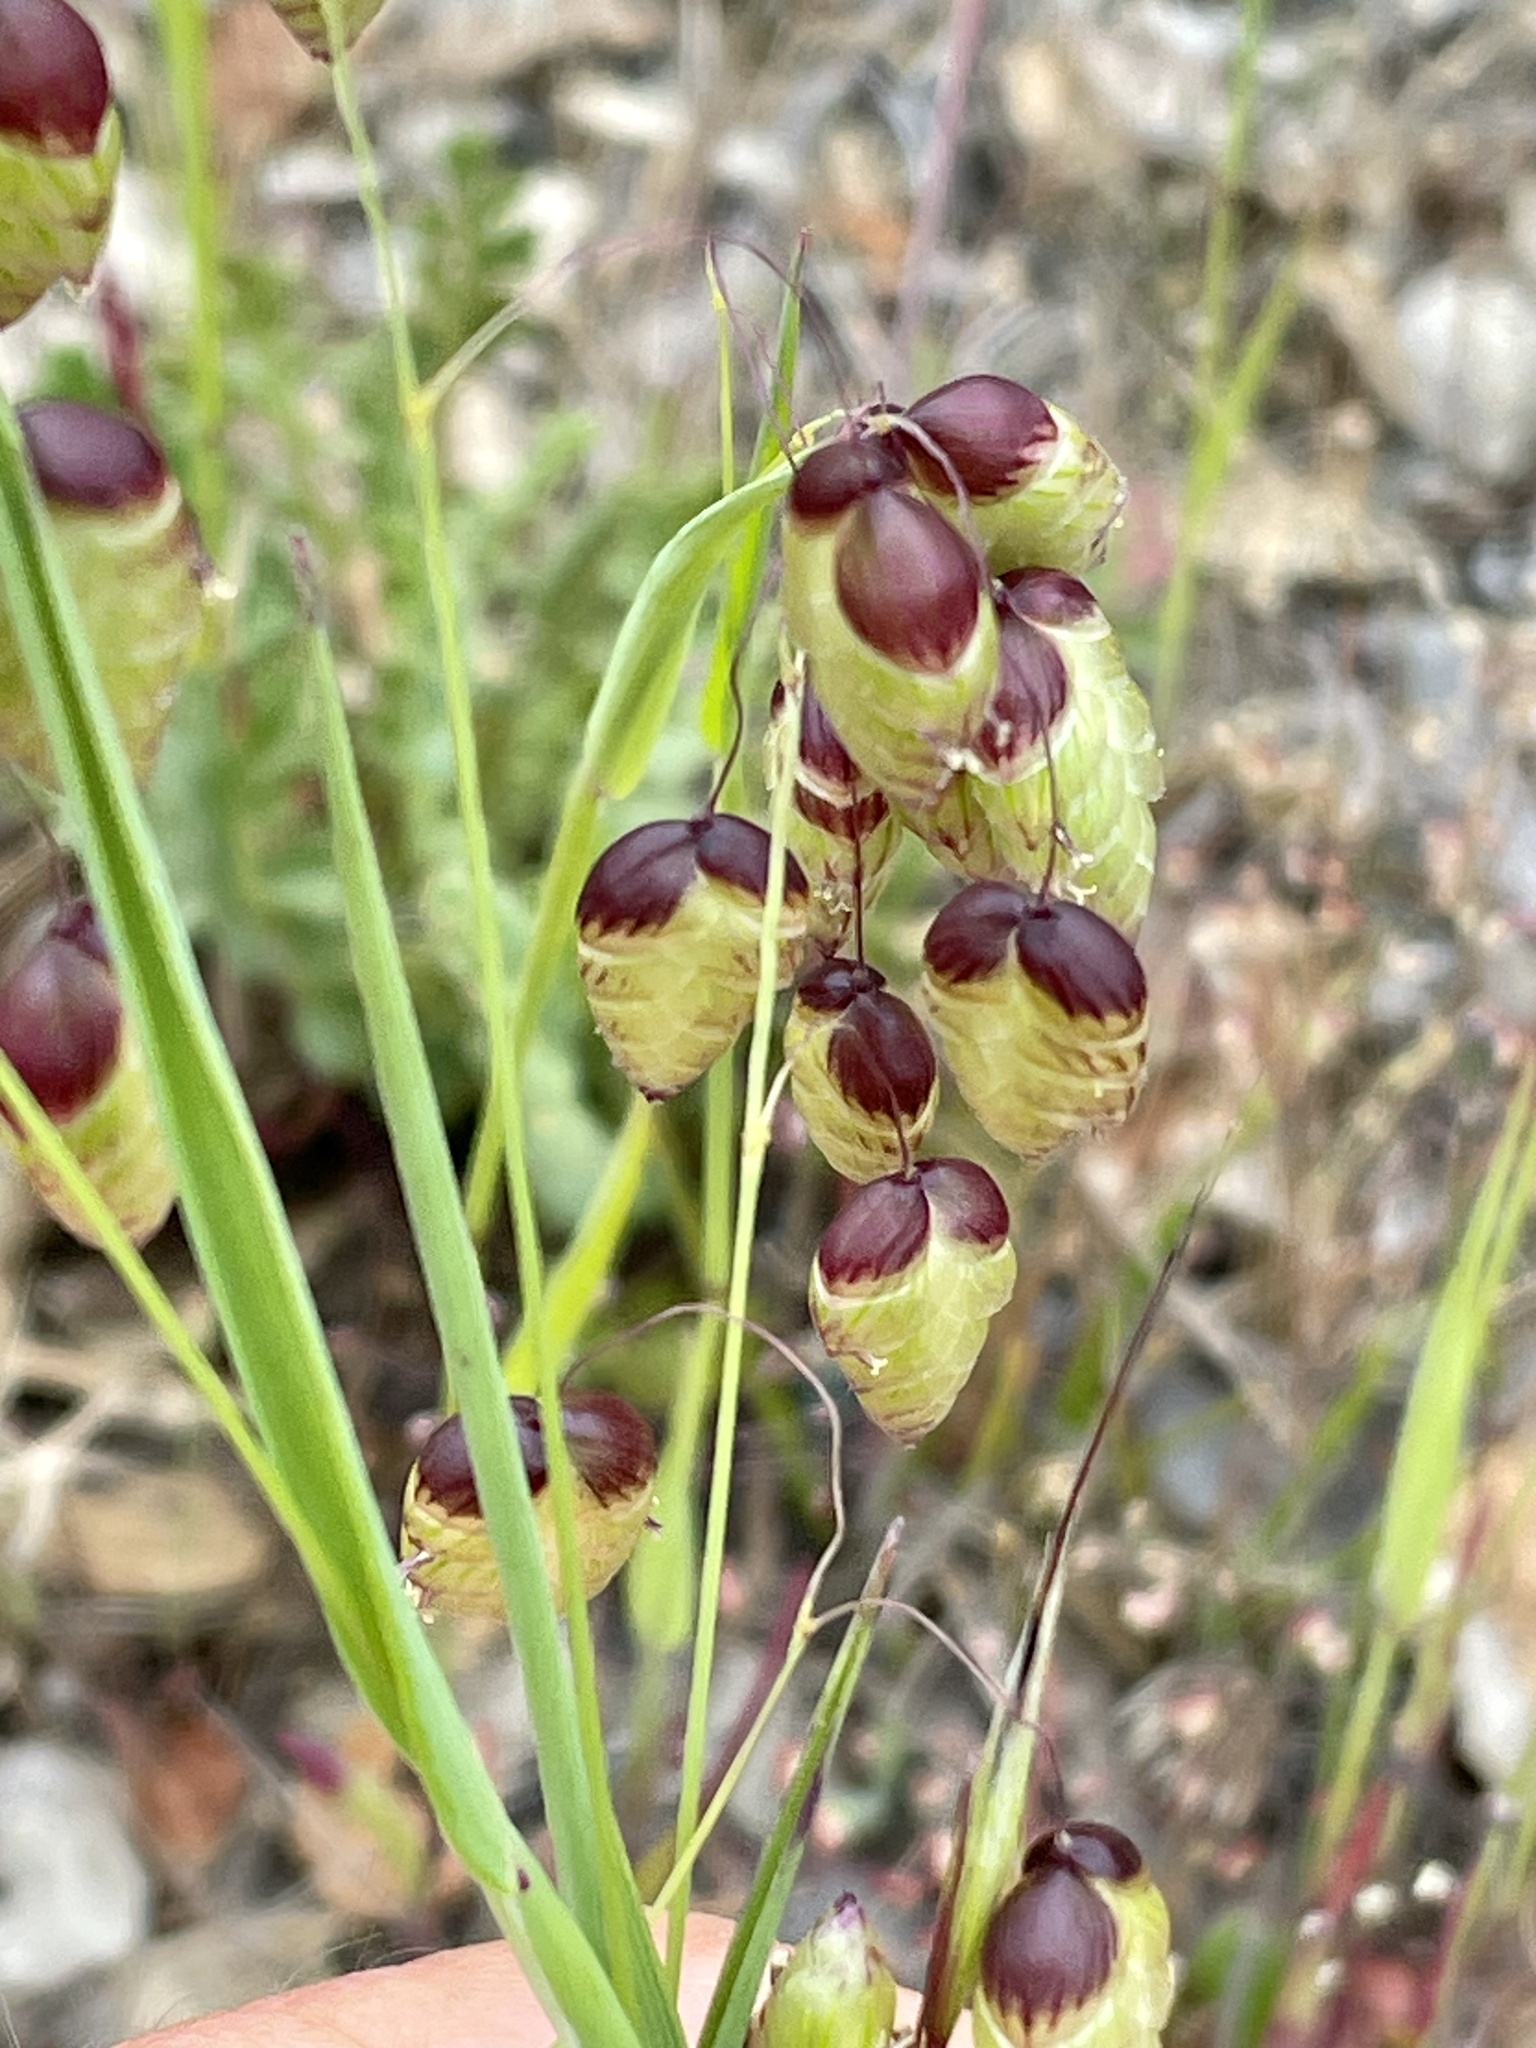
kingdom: Plantae
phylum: Tracheophyta
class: Liliopsida
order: Poales
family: Poaceae
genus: Briza
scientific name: Briza maxima
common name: Big quakinggrass
